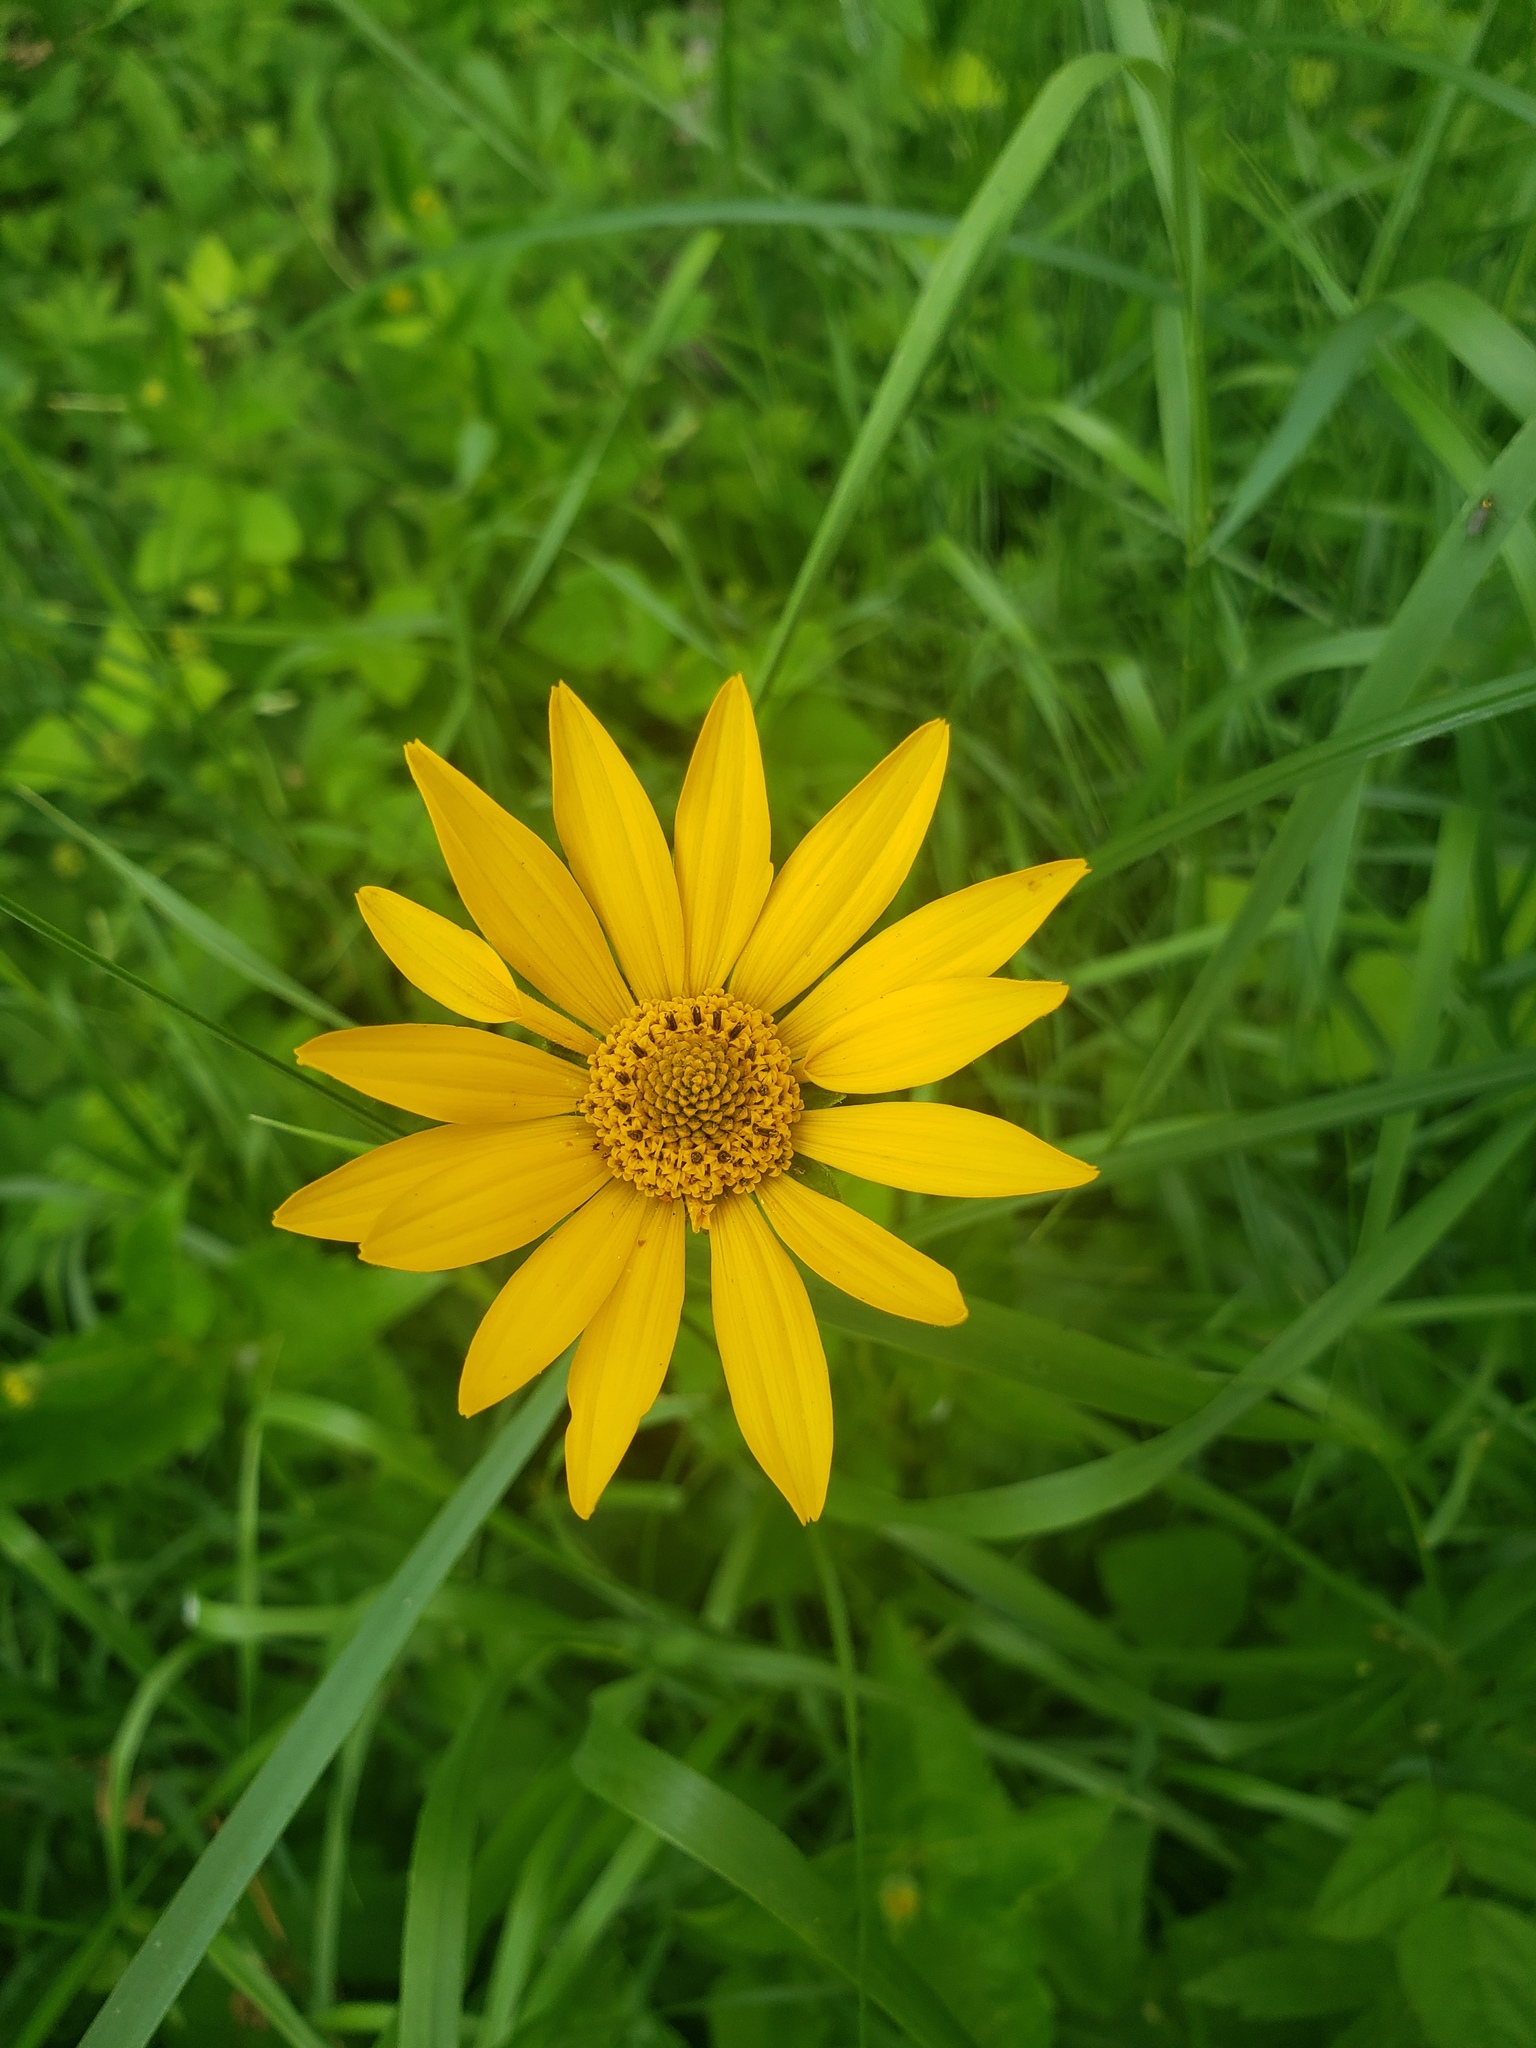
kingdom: Plantae
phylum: Tracheophyta
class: Magnoliopsida
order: Asterales
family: Asteraceae
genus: Heliopsis
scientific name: Heliopsis helianthoides
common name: False sunflower
